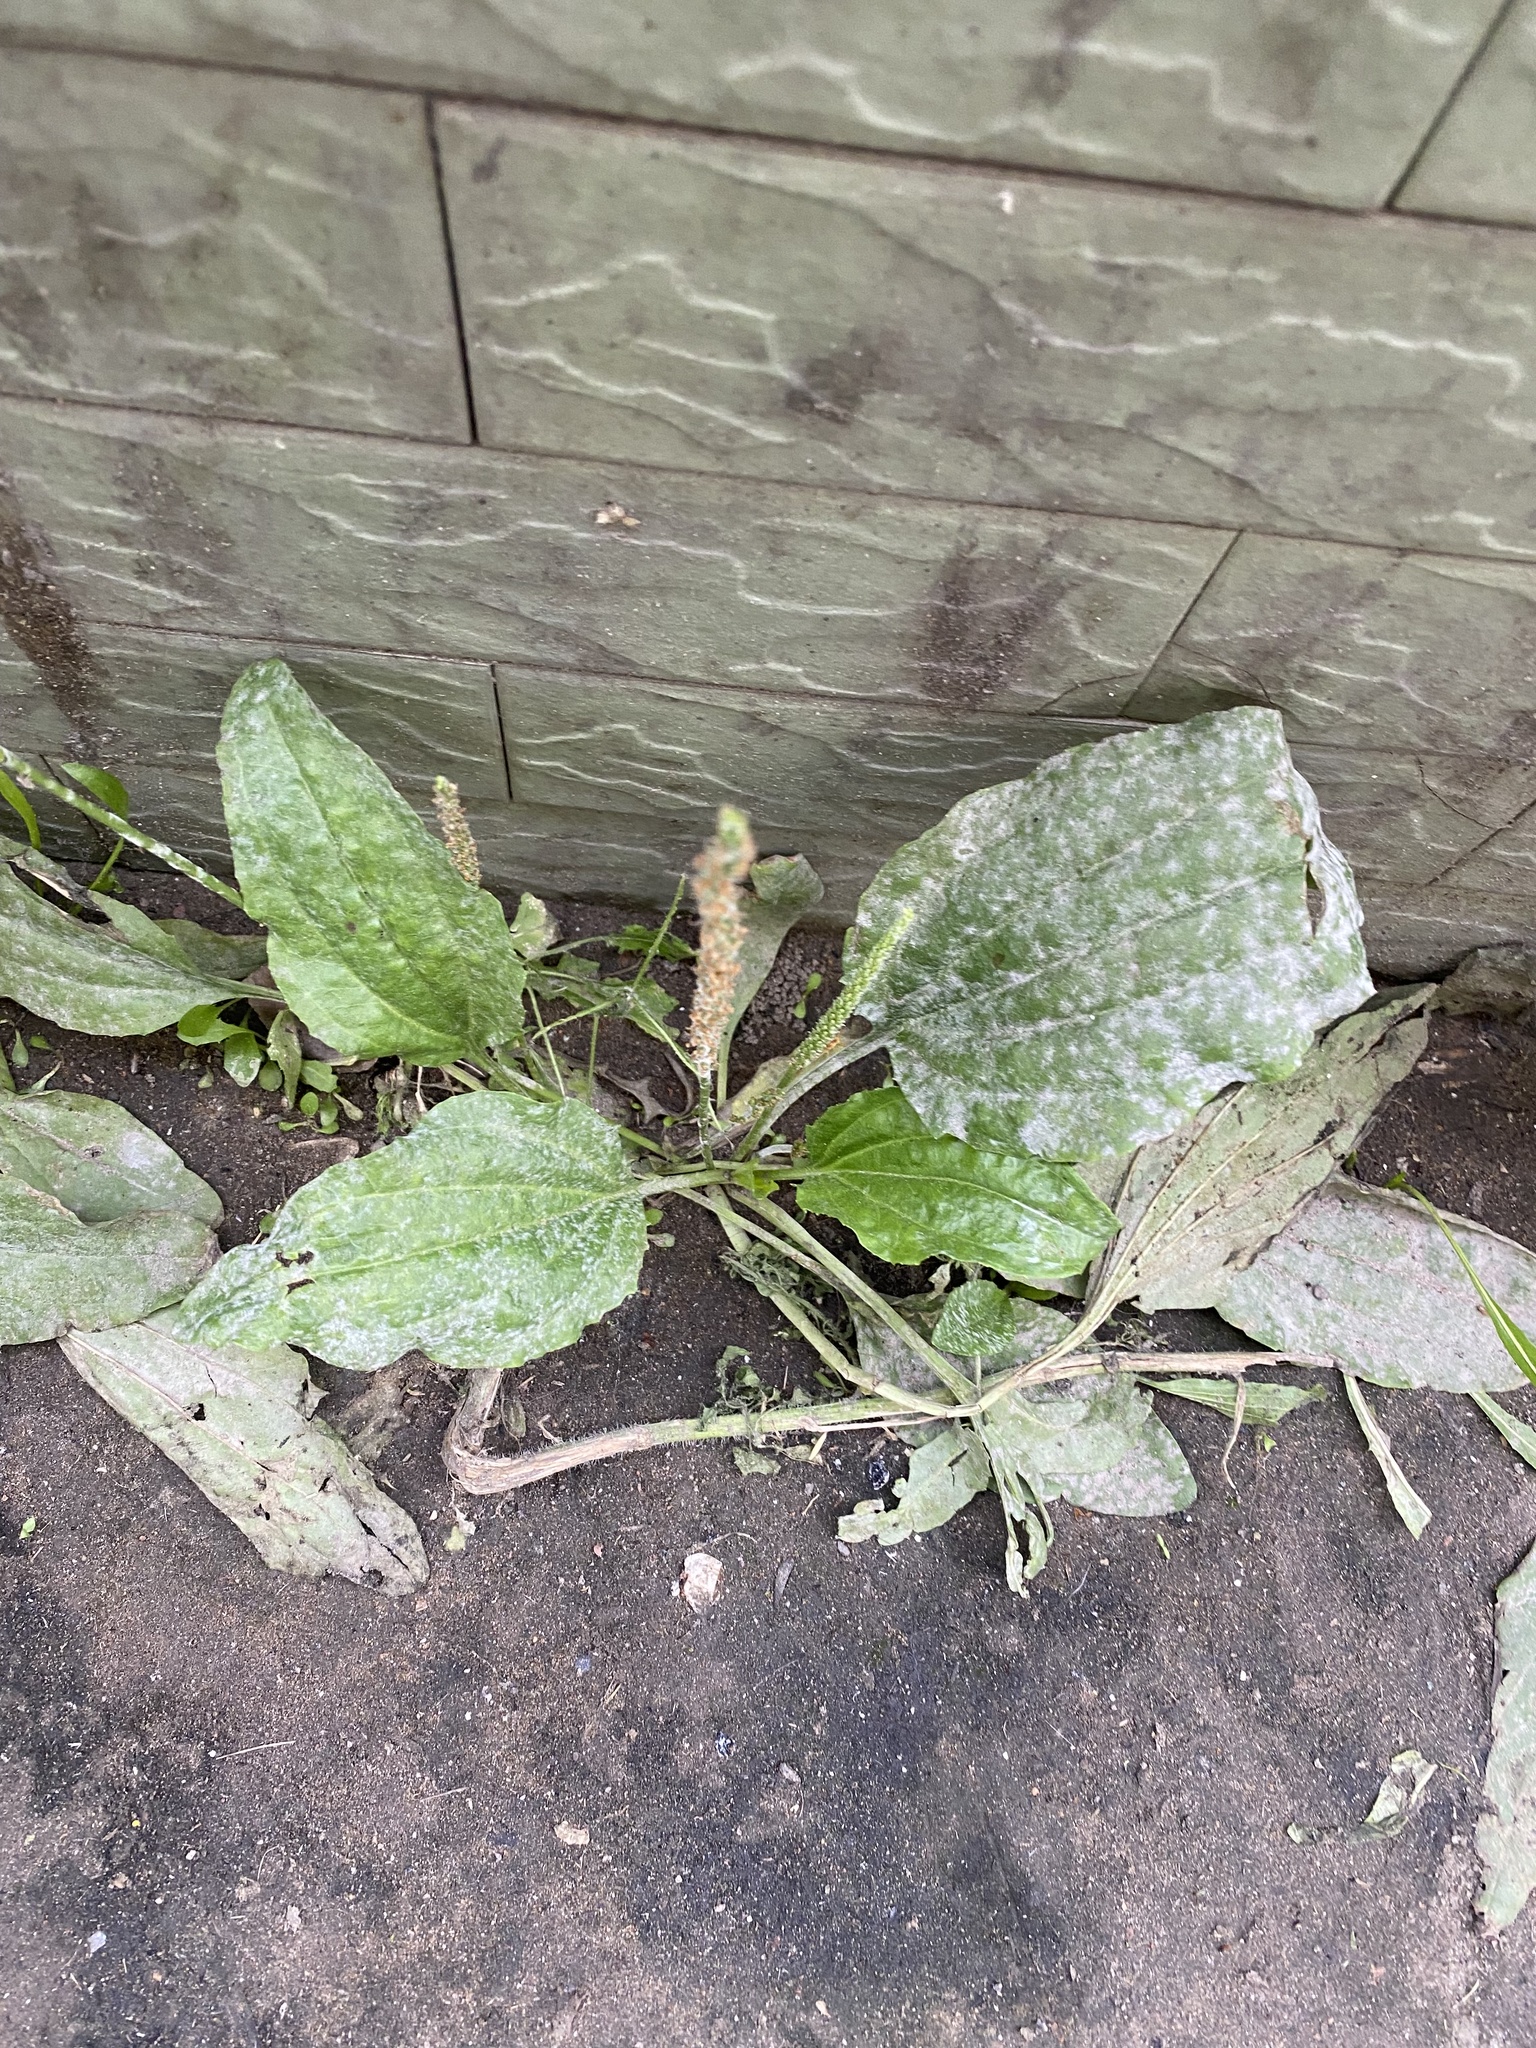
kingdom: Plantae
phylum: Tracheophyta
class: Magnoliopsida
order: Lamiales
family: Plantaginaceae
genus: Plantago
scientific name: Plantago major
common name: Common plantain
